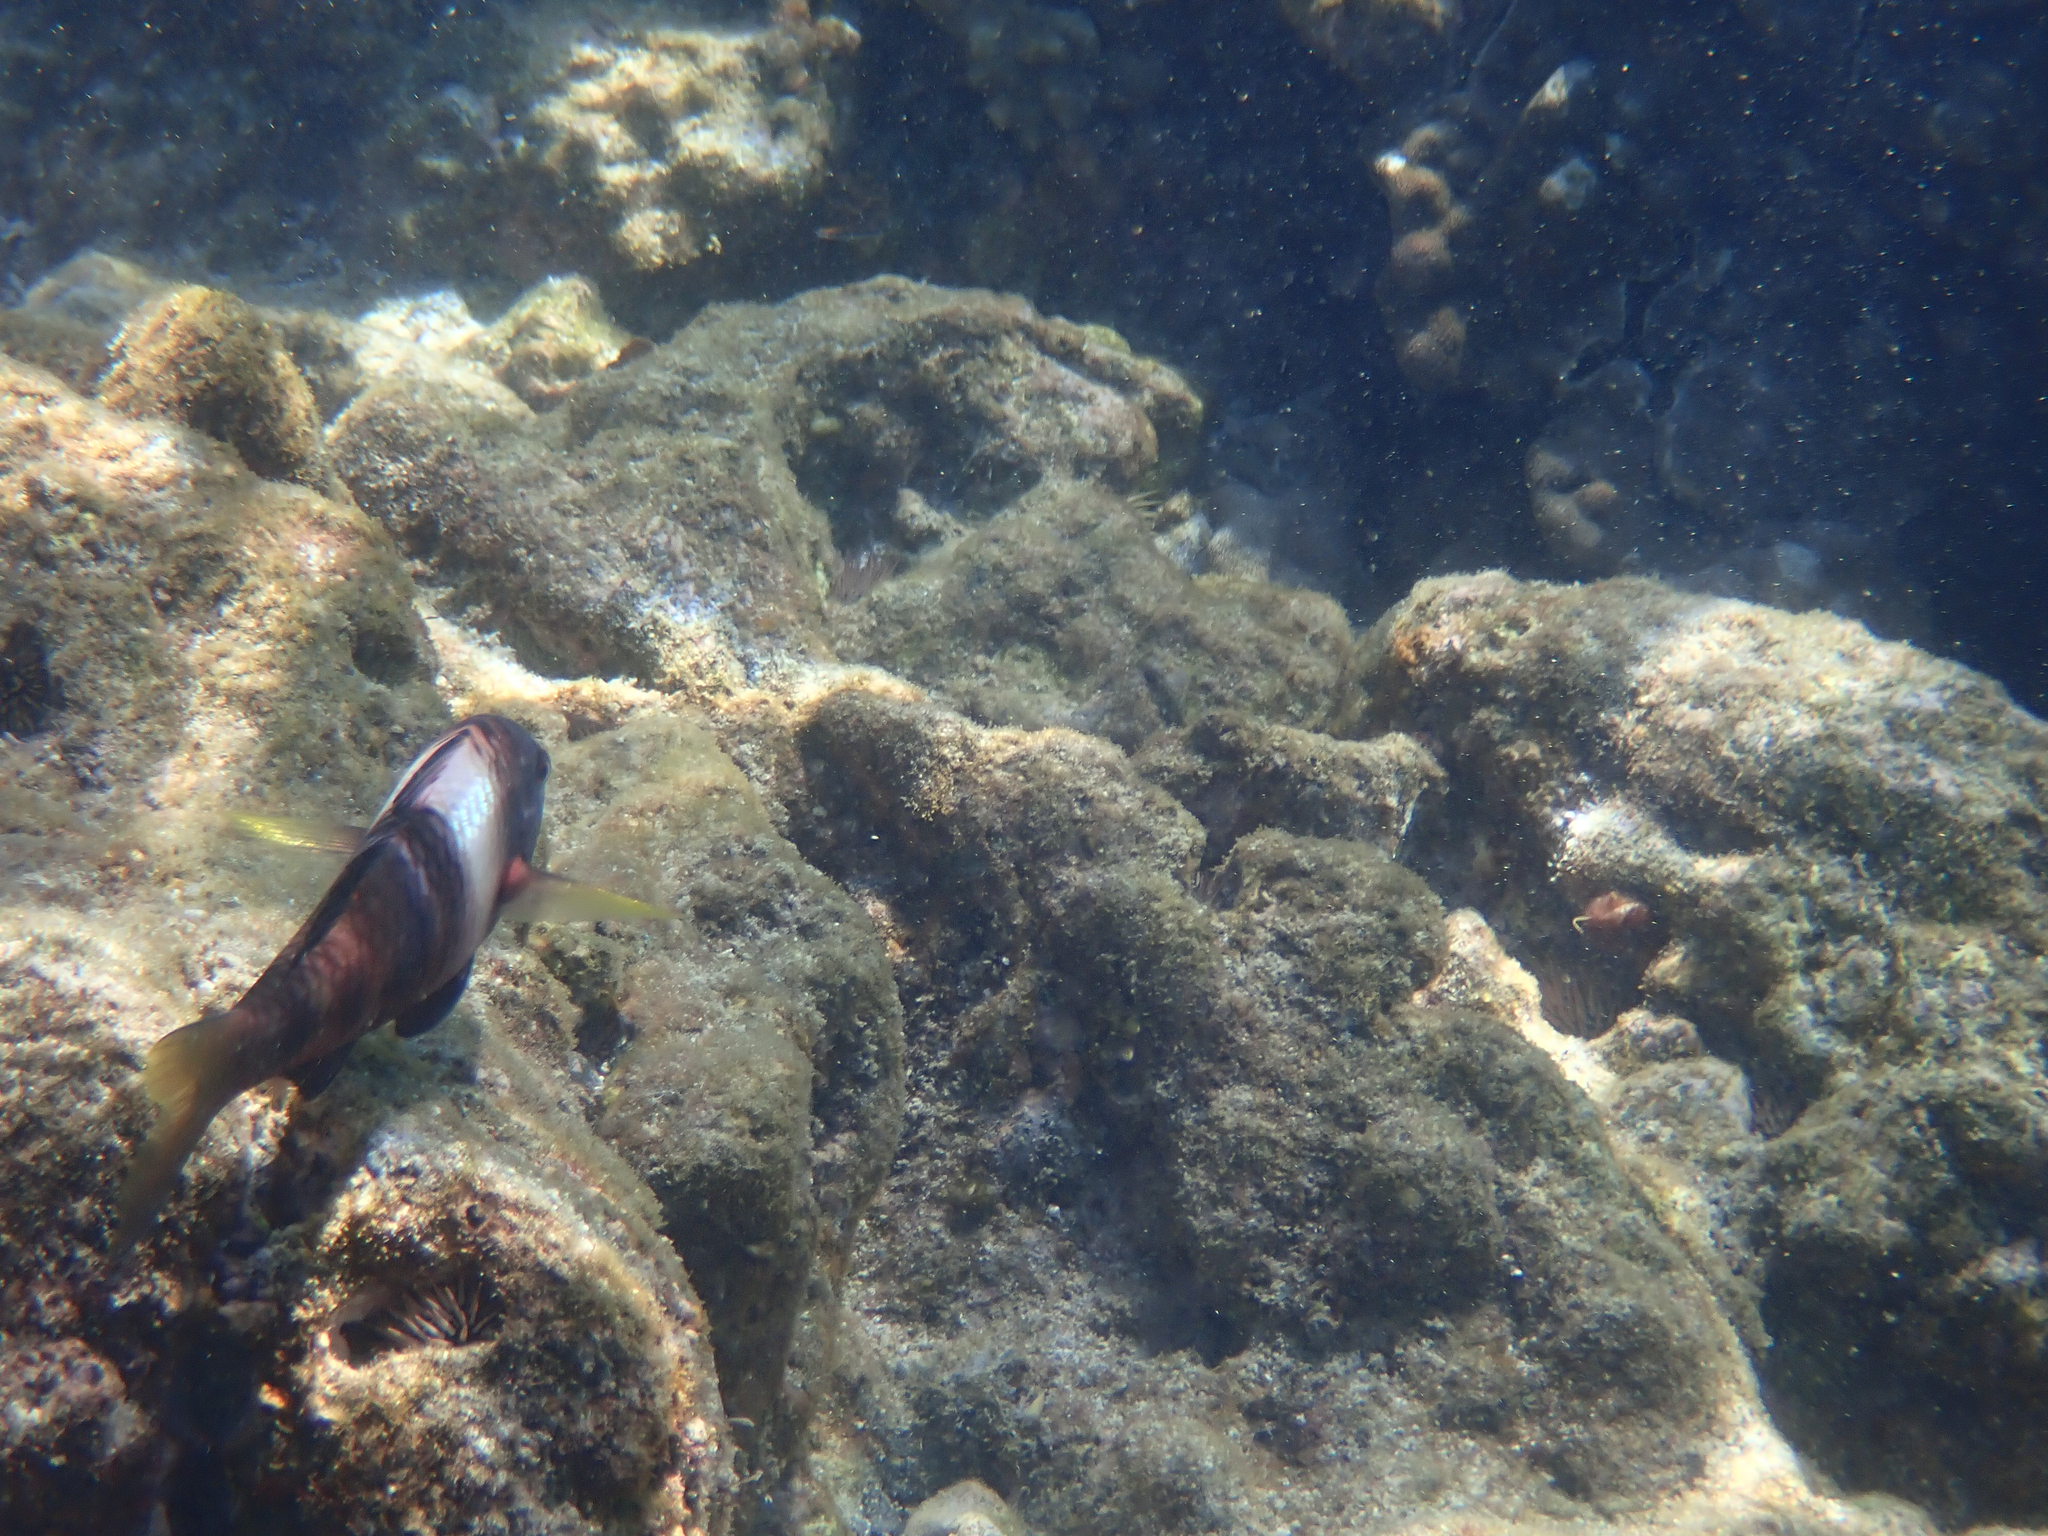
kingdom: Animalia
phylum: Chordata
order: Perciformes
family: Mullidae
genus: Parupeneus
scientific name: Parupeneus multifasciatus
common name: Manybar goatfish
